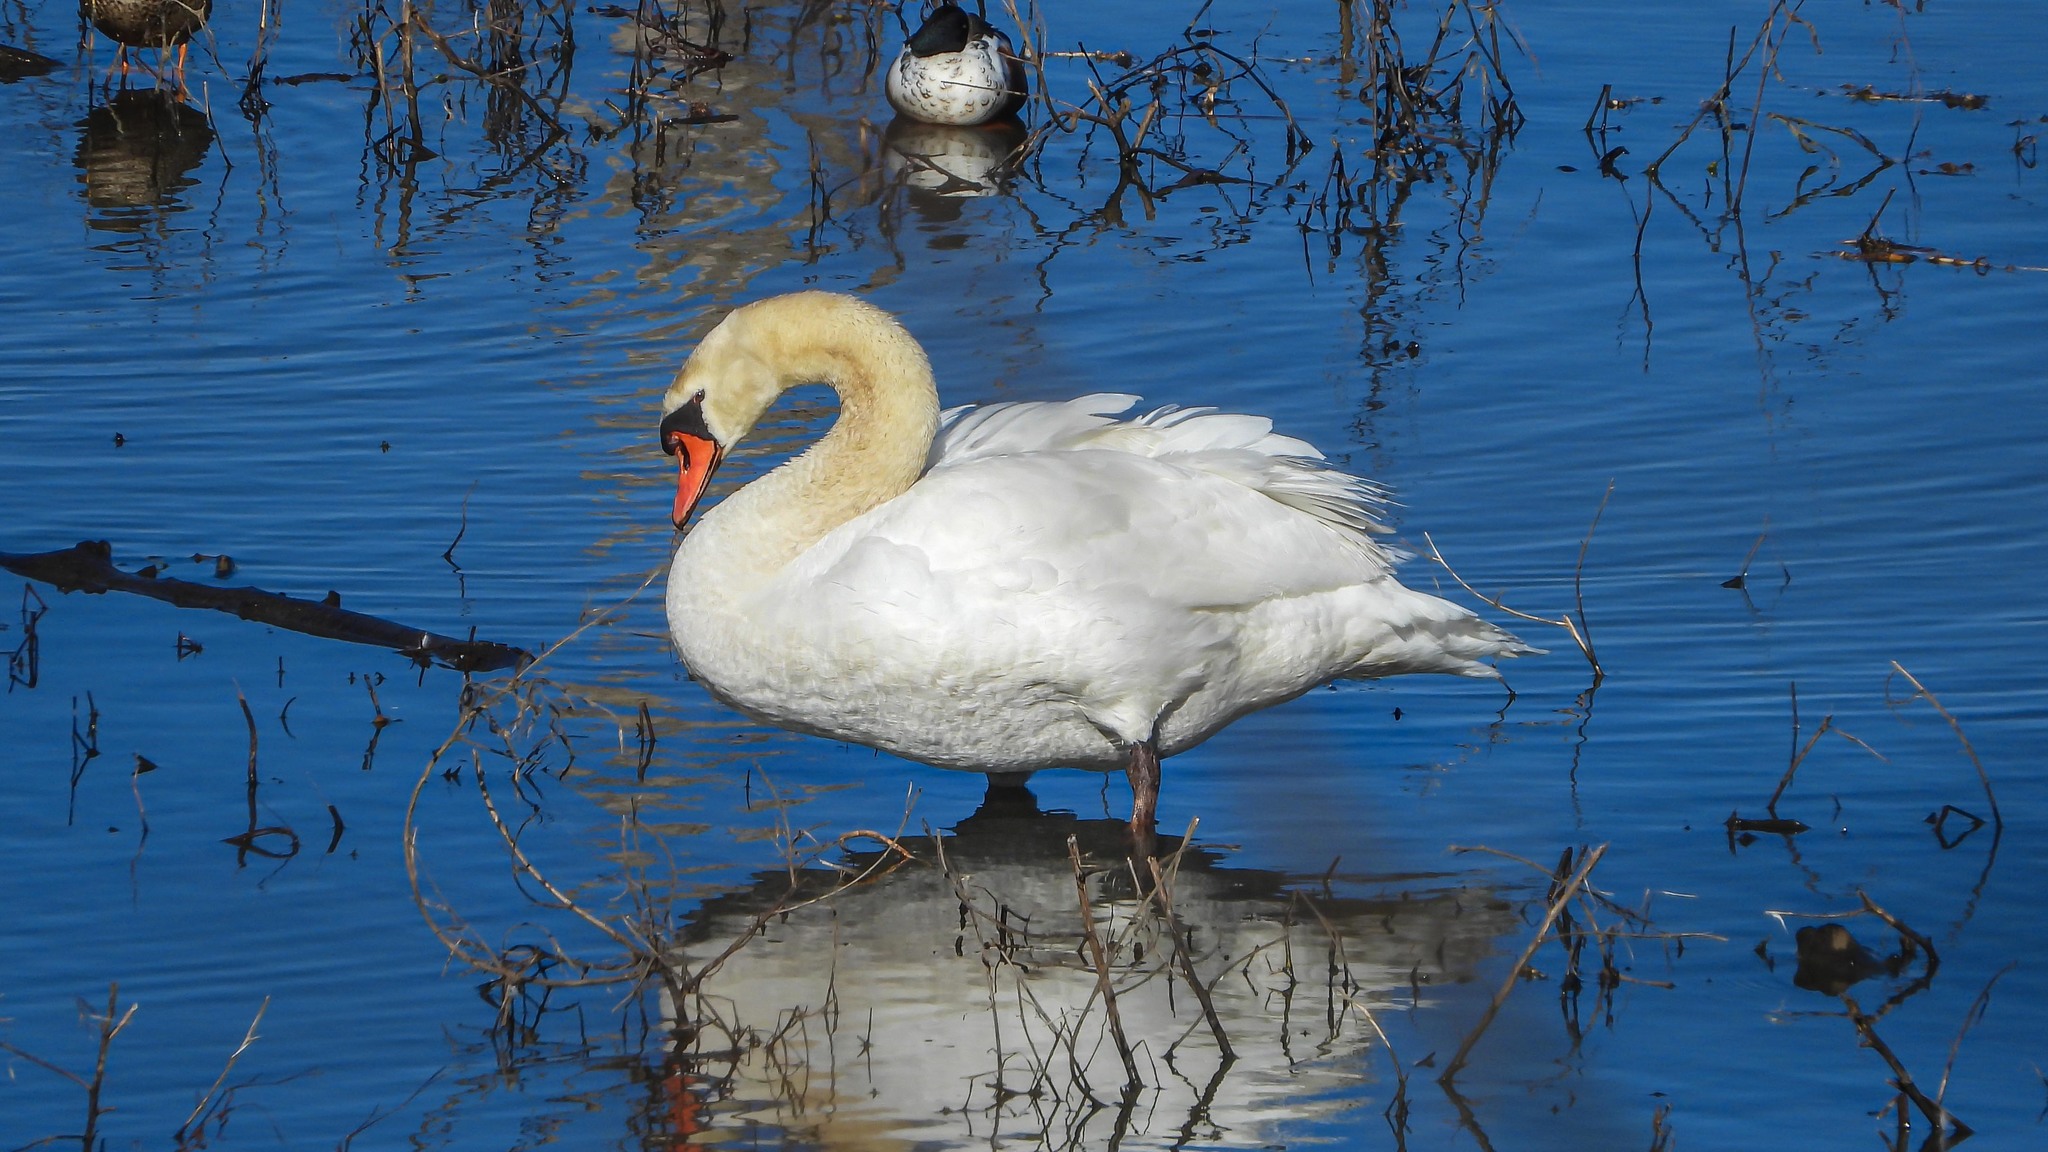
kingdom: Animalia
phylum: Chordata
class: Aves
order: Anseriformes
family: Anatidae
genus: Cygnus
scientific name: Cygnus olor
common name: Mute swan
